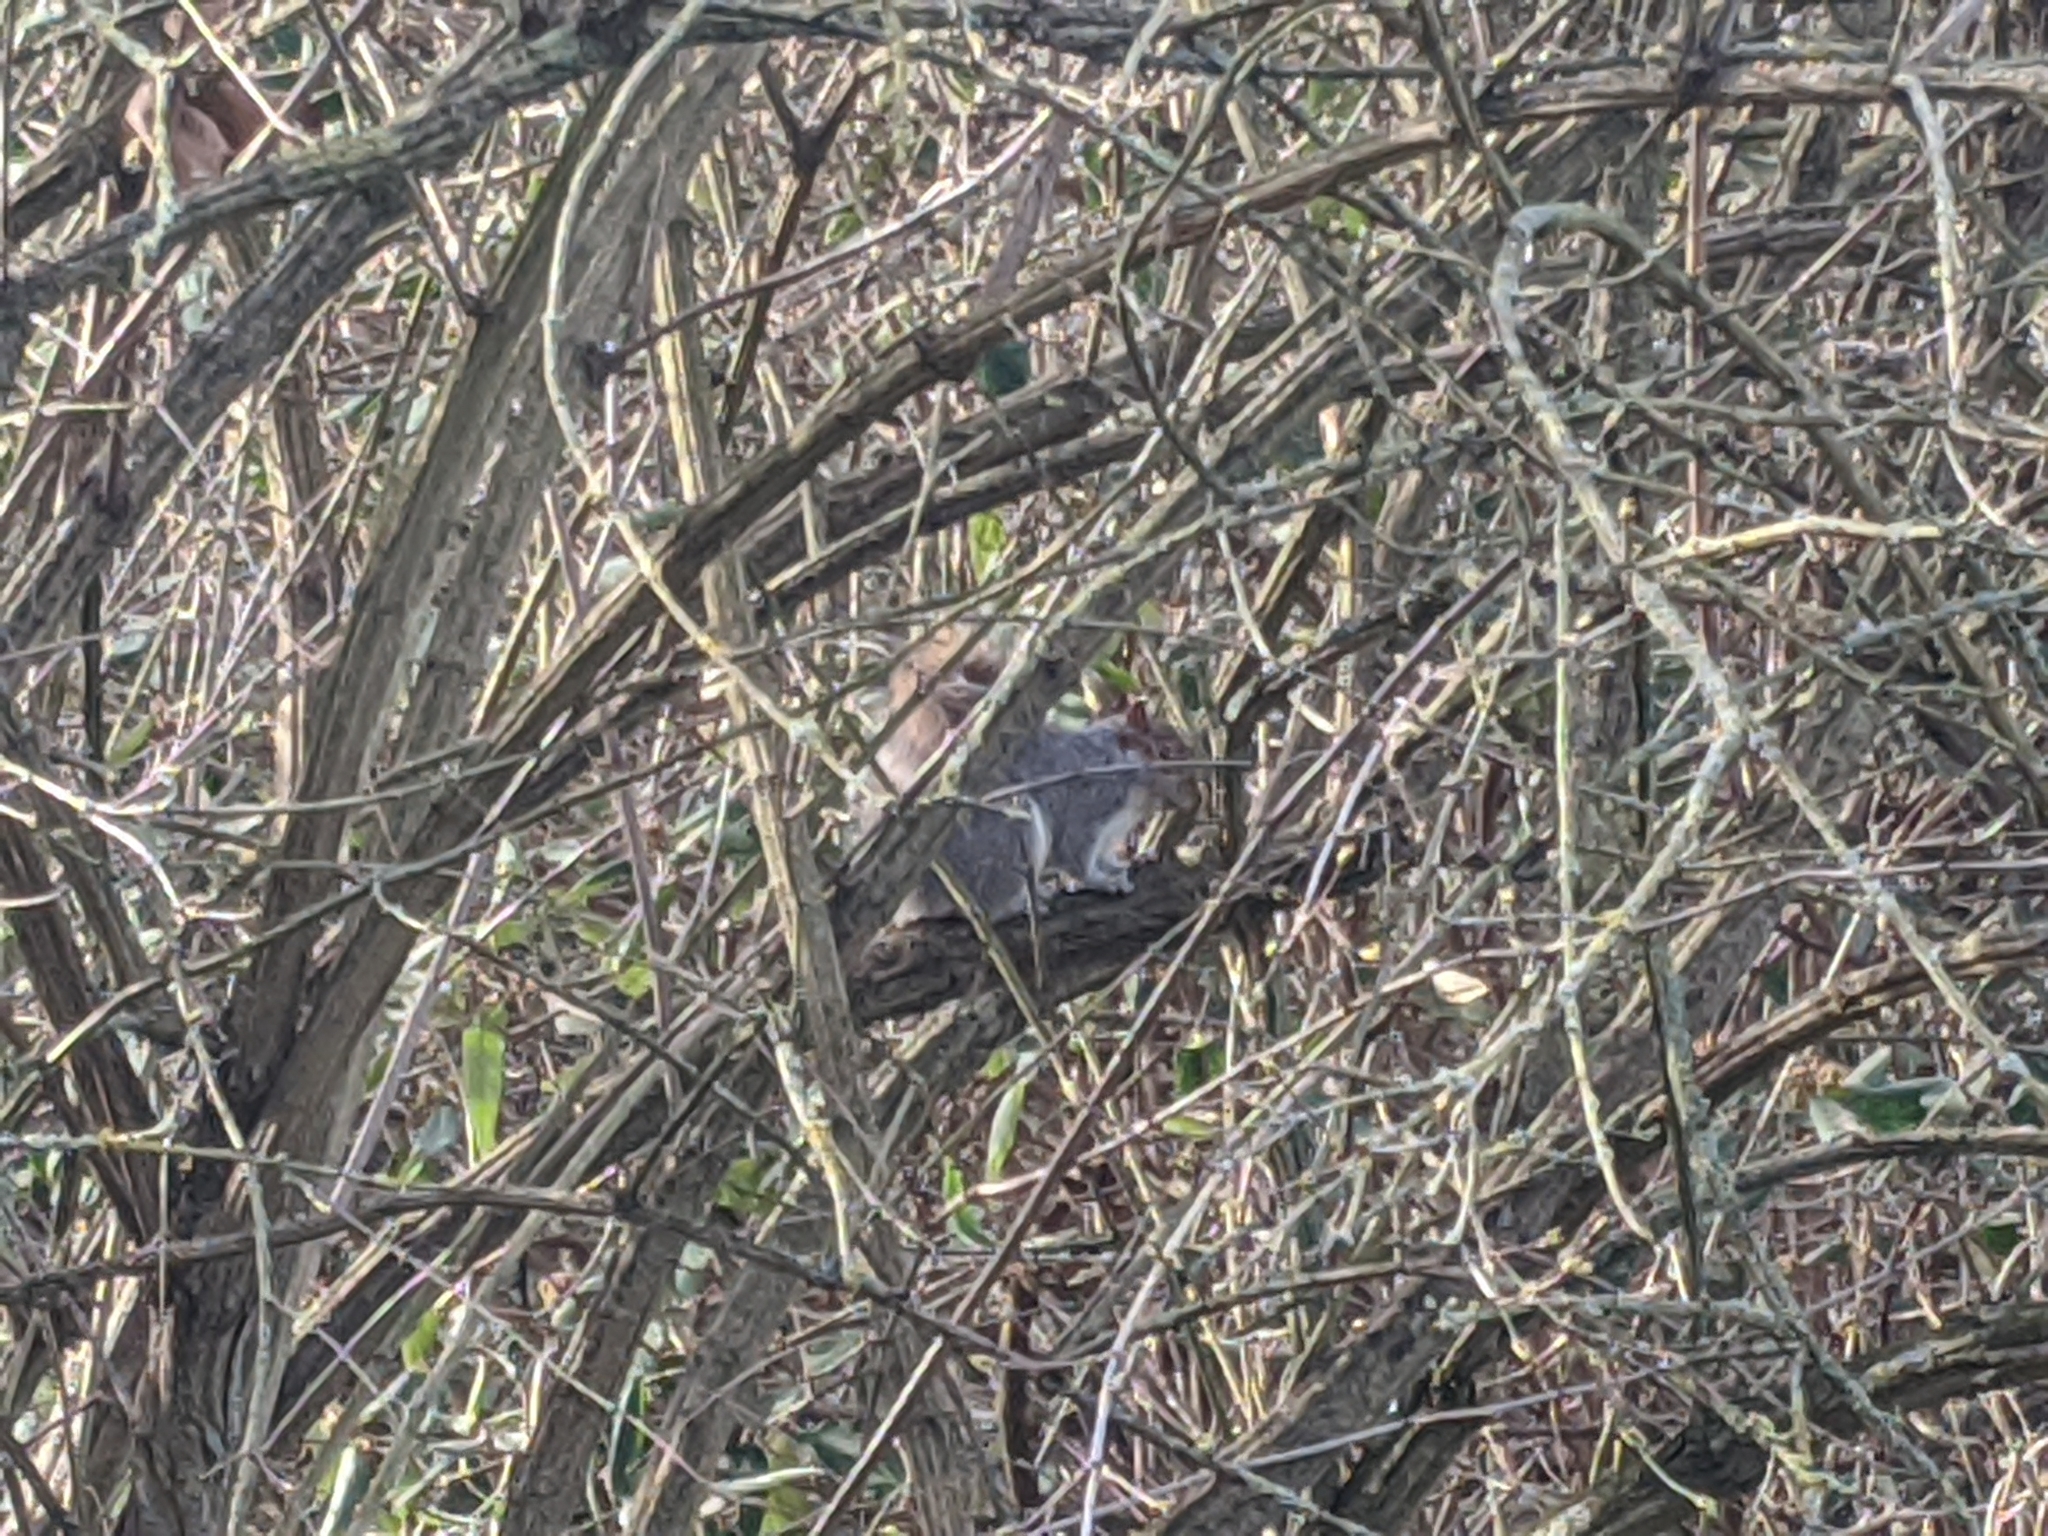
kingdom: Animalia
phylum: Chordata
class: Mammalia
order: Rodentia
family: Sciuridae
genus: Sciurus
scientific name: Sciurus carolinensis
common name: Eastern gray squirrel
